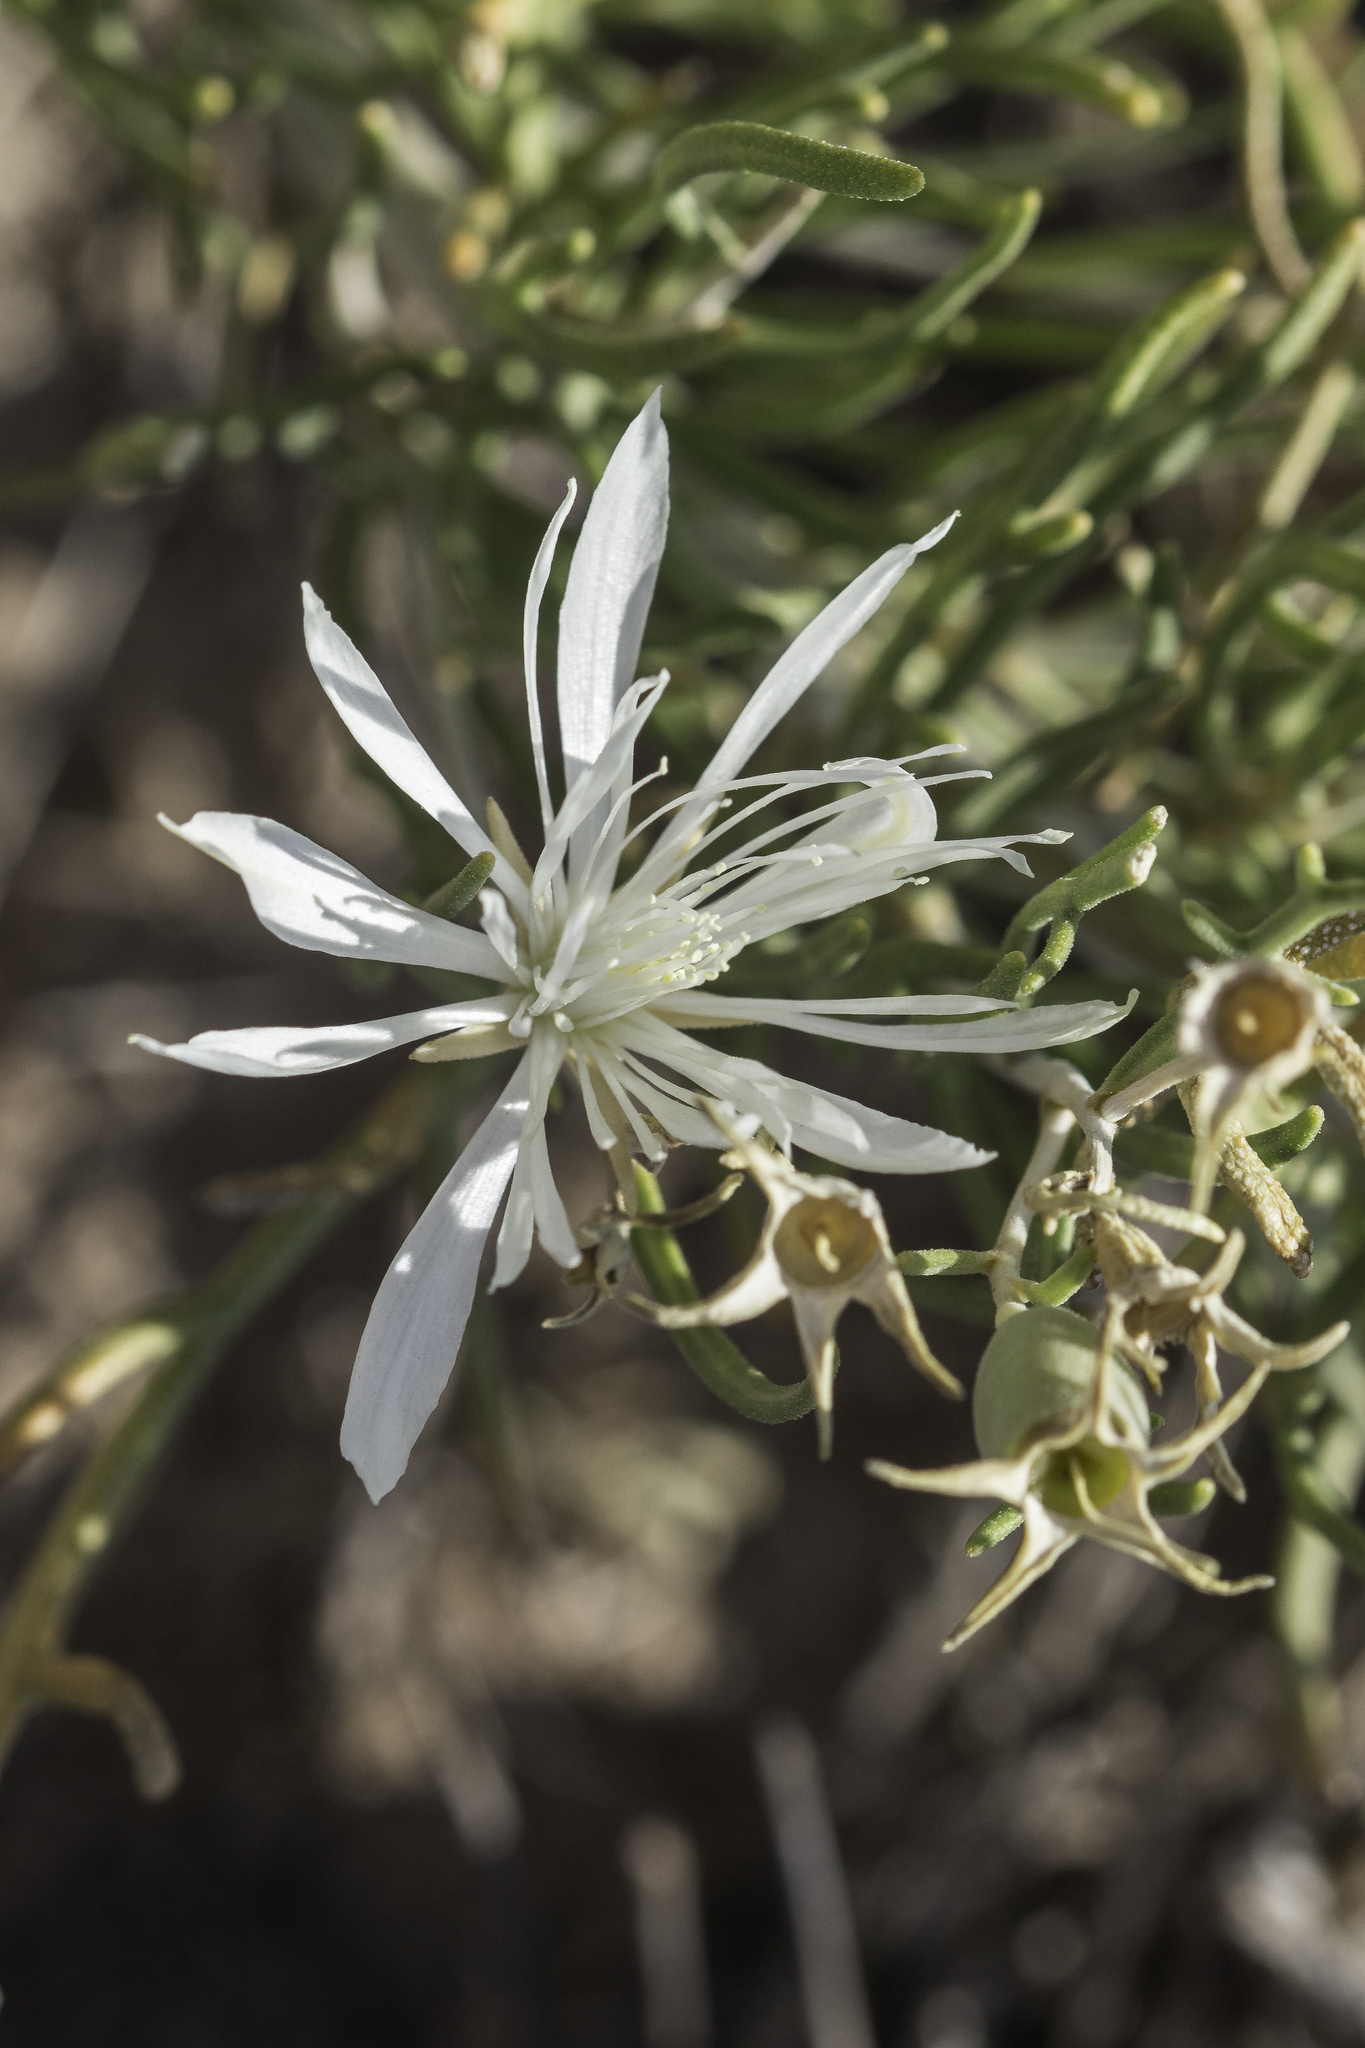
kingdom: Plantae
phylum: Tracheophyta
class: Magnoliopsida
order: Cornales
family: Loasaceae
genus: Mentzelia
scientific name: Mentzelia humilis
